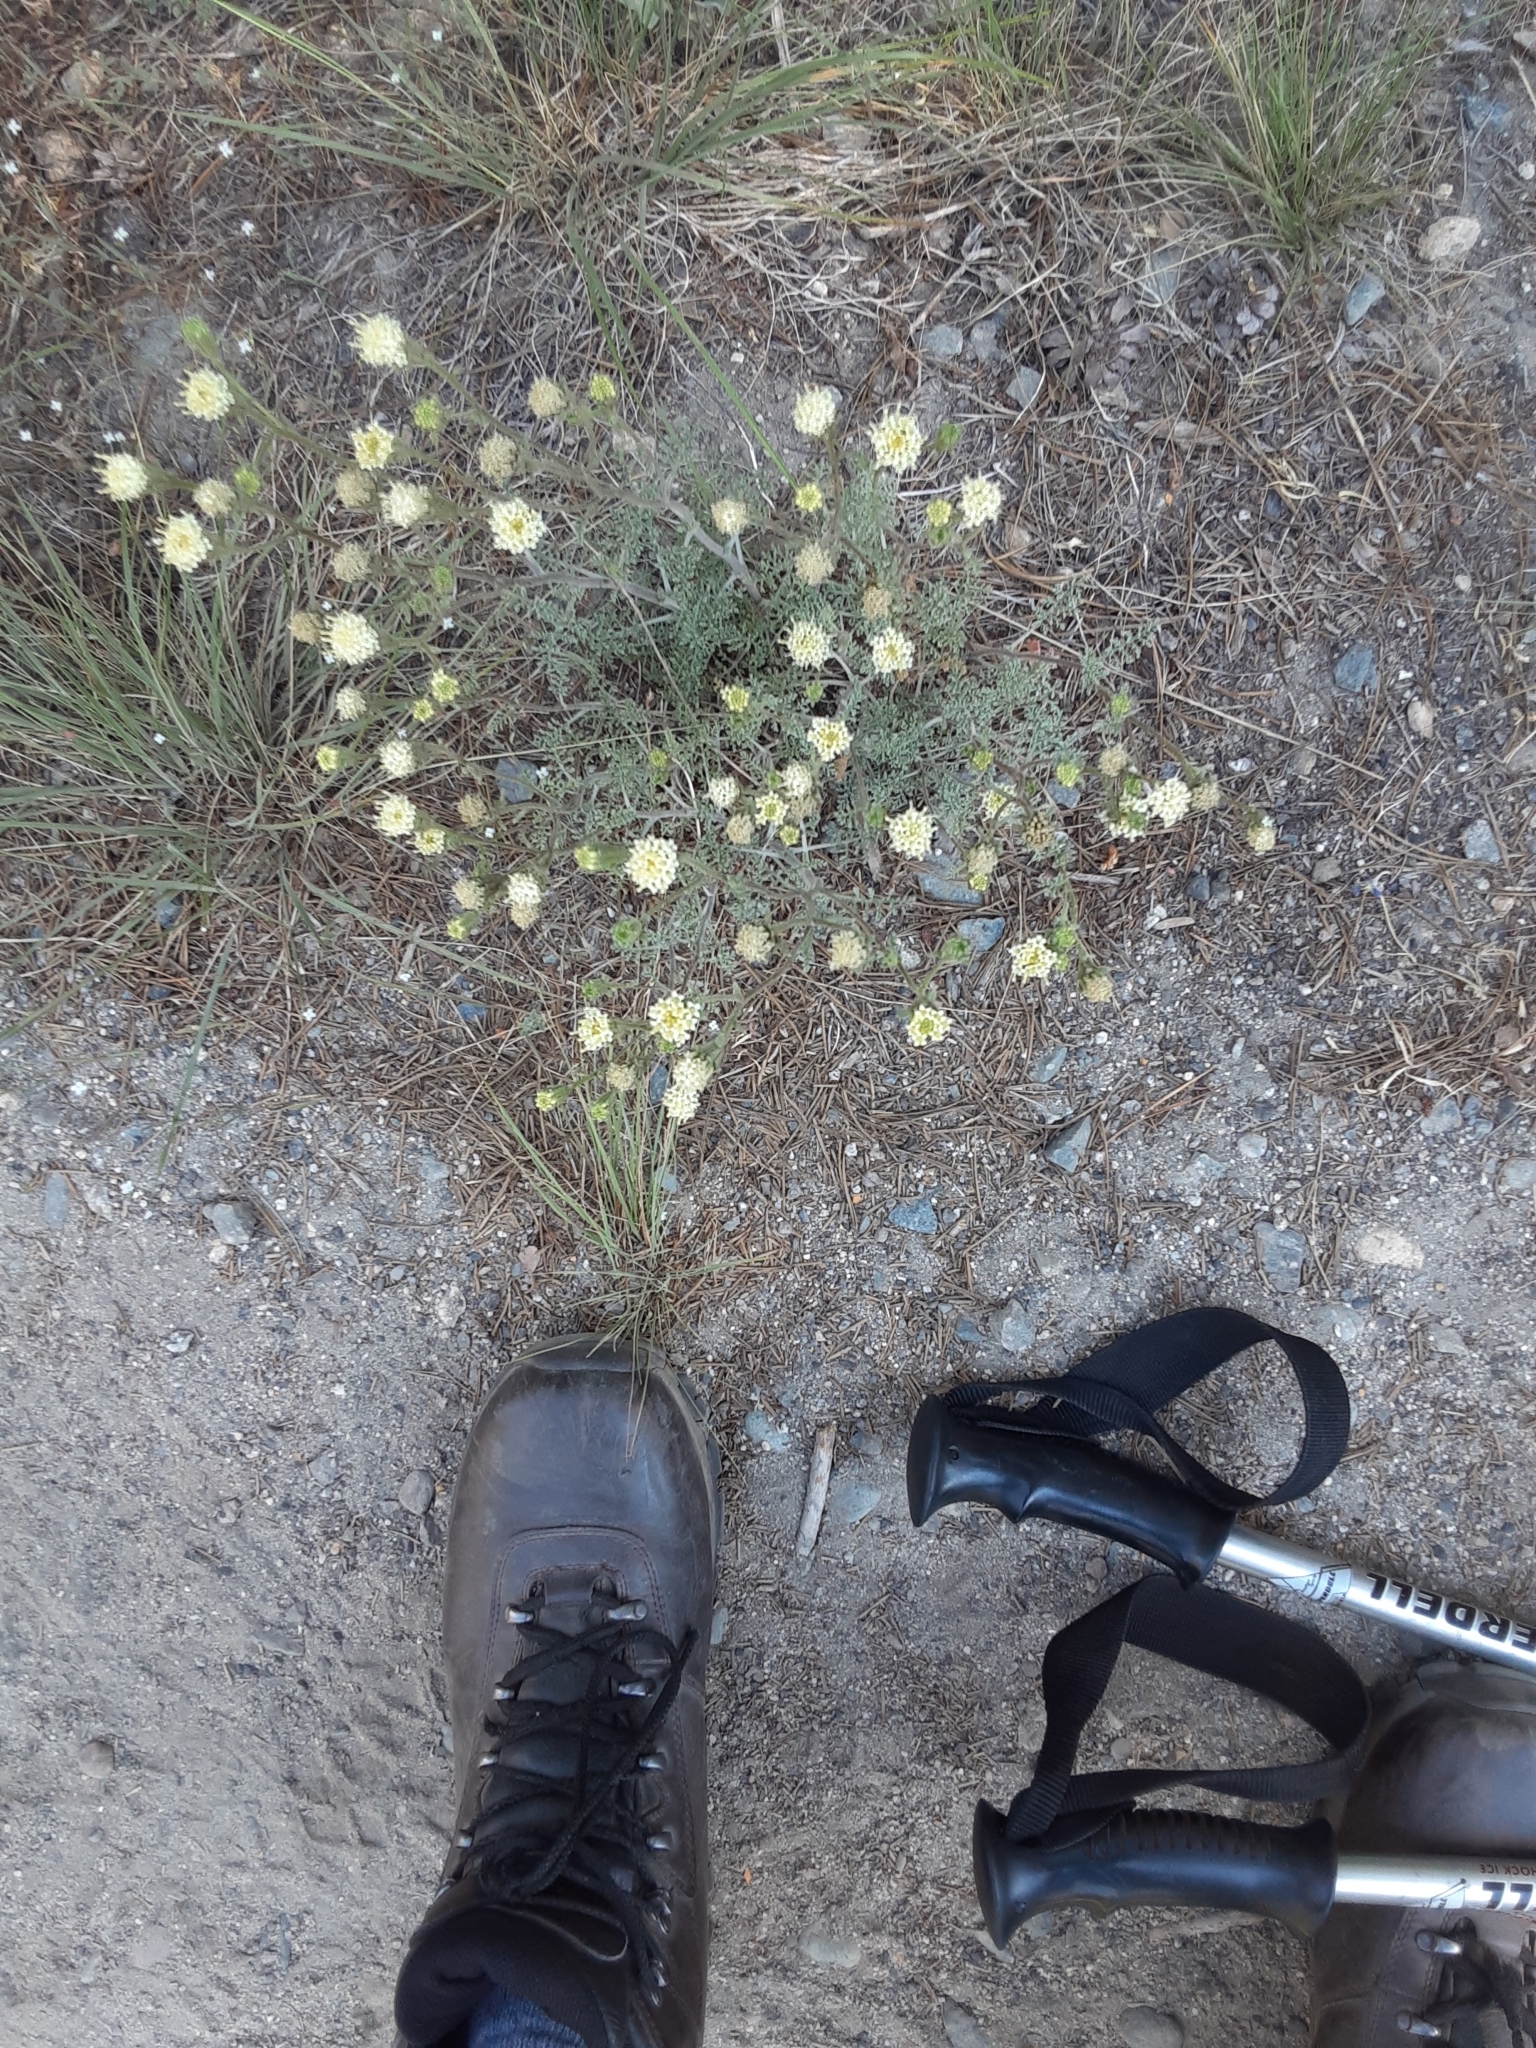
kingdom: Plantae
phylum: Tracheophyta
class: Magnoliopsida
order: Asterales
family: Asteraceae
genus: Chaenactis
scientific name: Chaenactis douglasii
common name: Hoary pincushion
